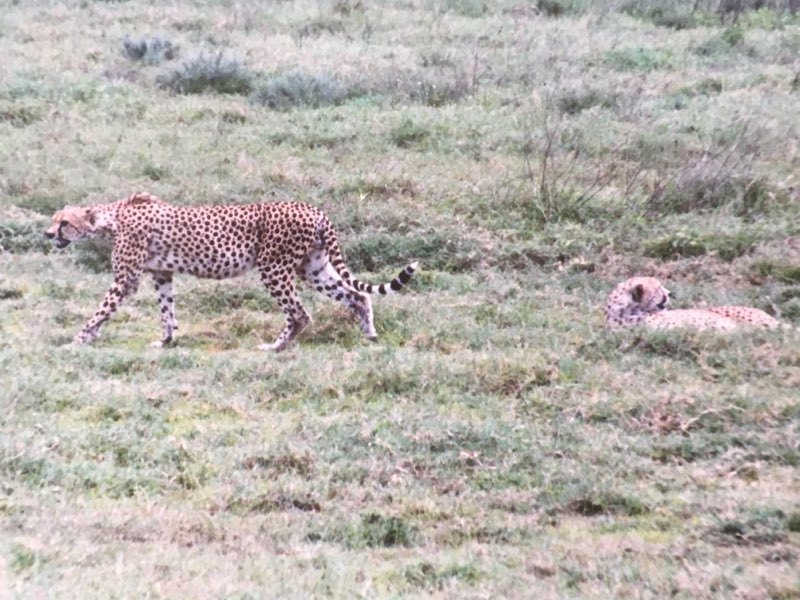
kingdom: Animalia
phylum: Chordata
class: Mammalia
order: Carnivora
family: Felidae
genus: Acinonyx
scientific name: Acinonyx jubatus
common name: Cheetah
